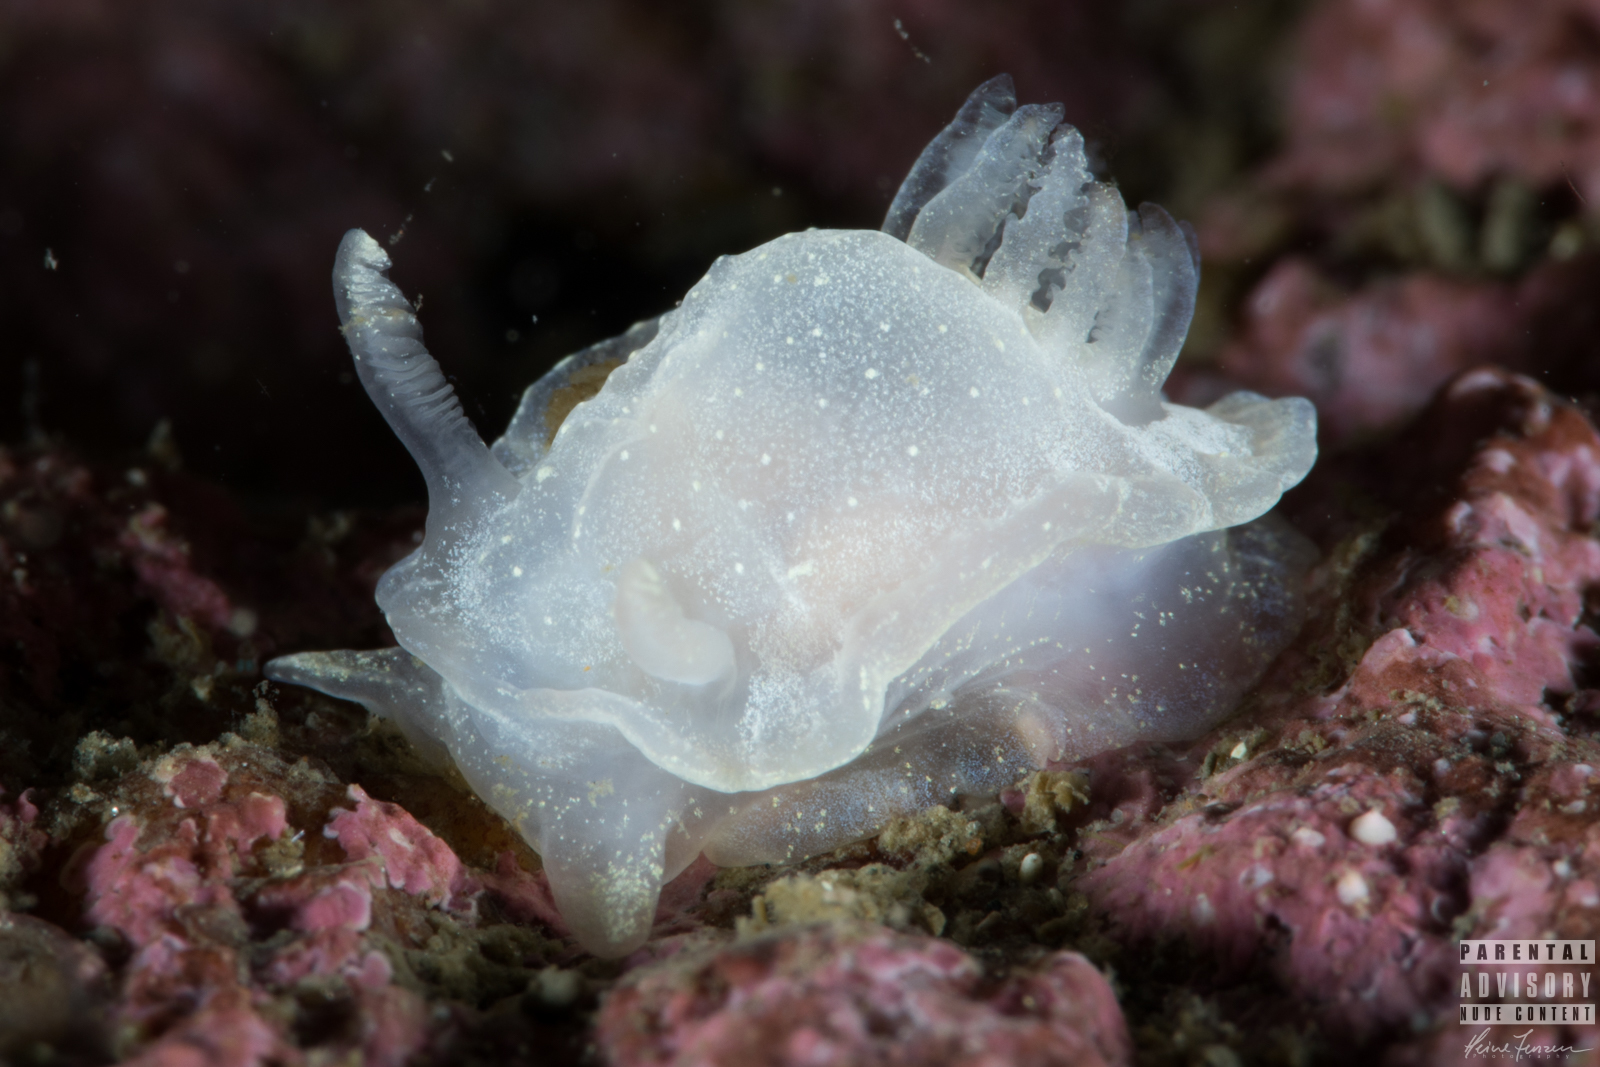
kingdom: Animalia
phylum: Mollusca
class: Gastropoda
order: Nudibranchia
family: Goniodorididae
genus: Okenia
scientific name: Okenia
